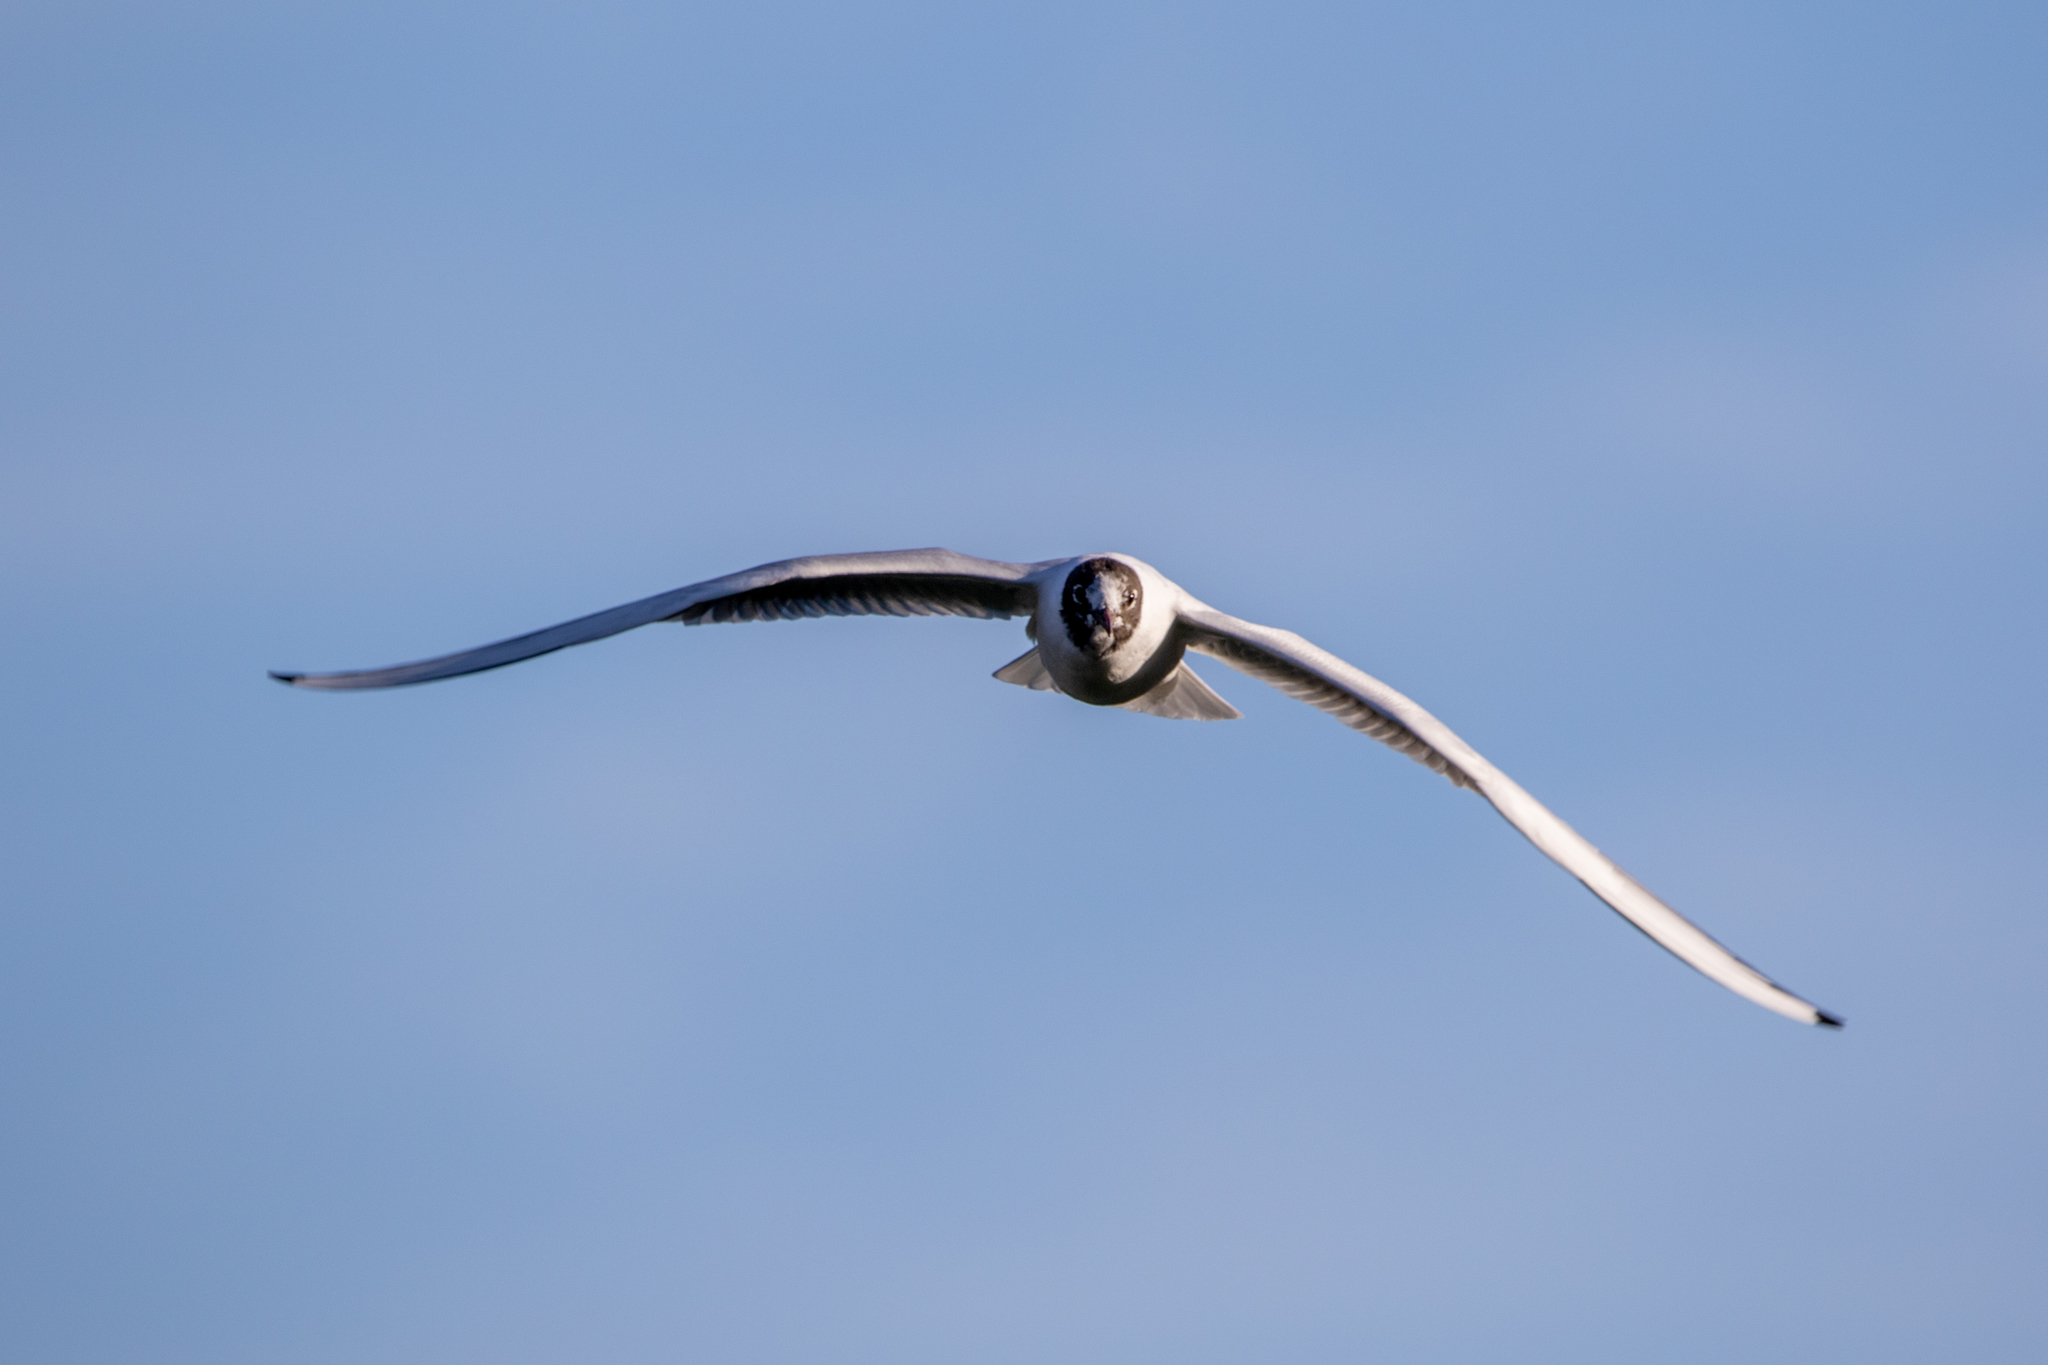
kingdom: Animalia
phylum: Chordata
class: Aves
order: Charadriiformes
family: Laridae
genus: Chroicocephalus
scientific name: Chroicocephalus ridibundus
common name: Black-headed gull
